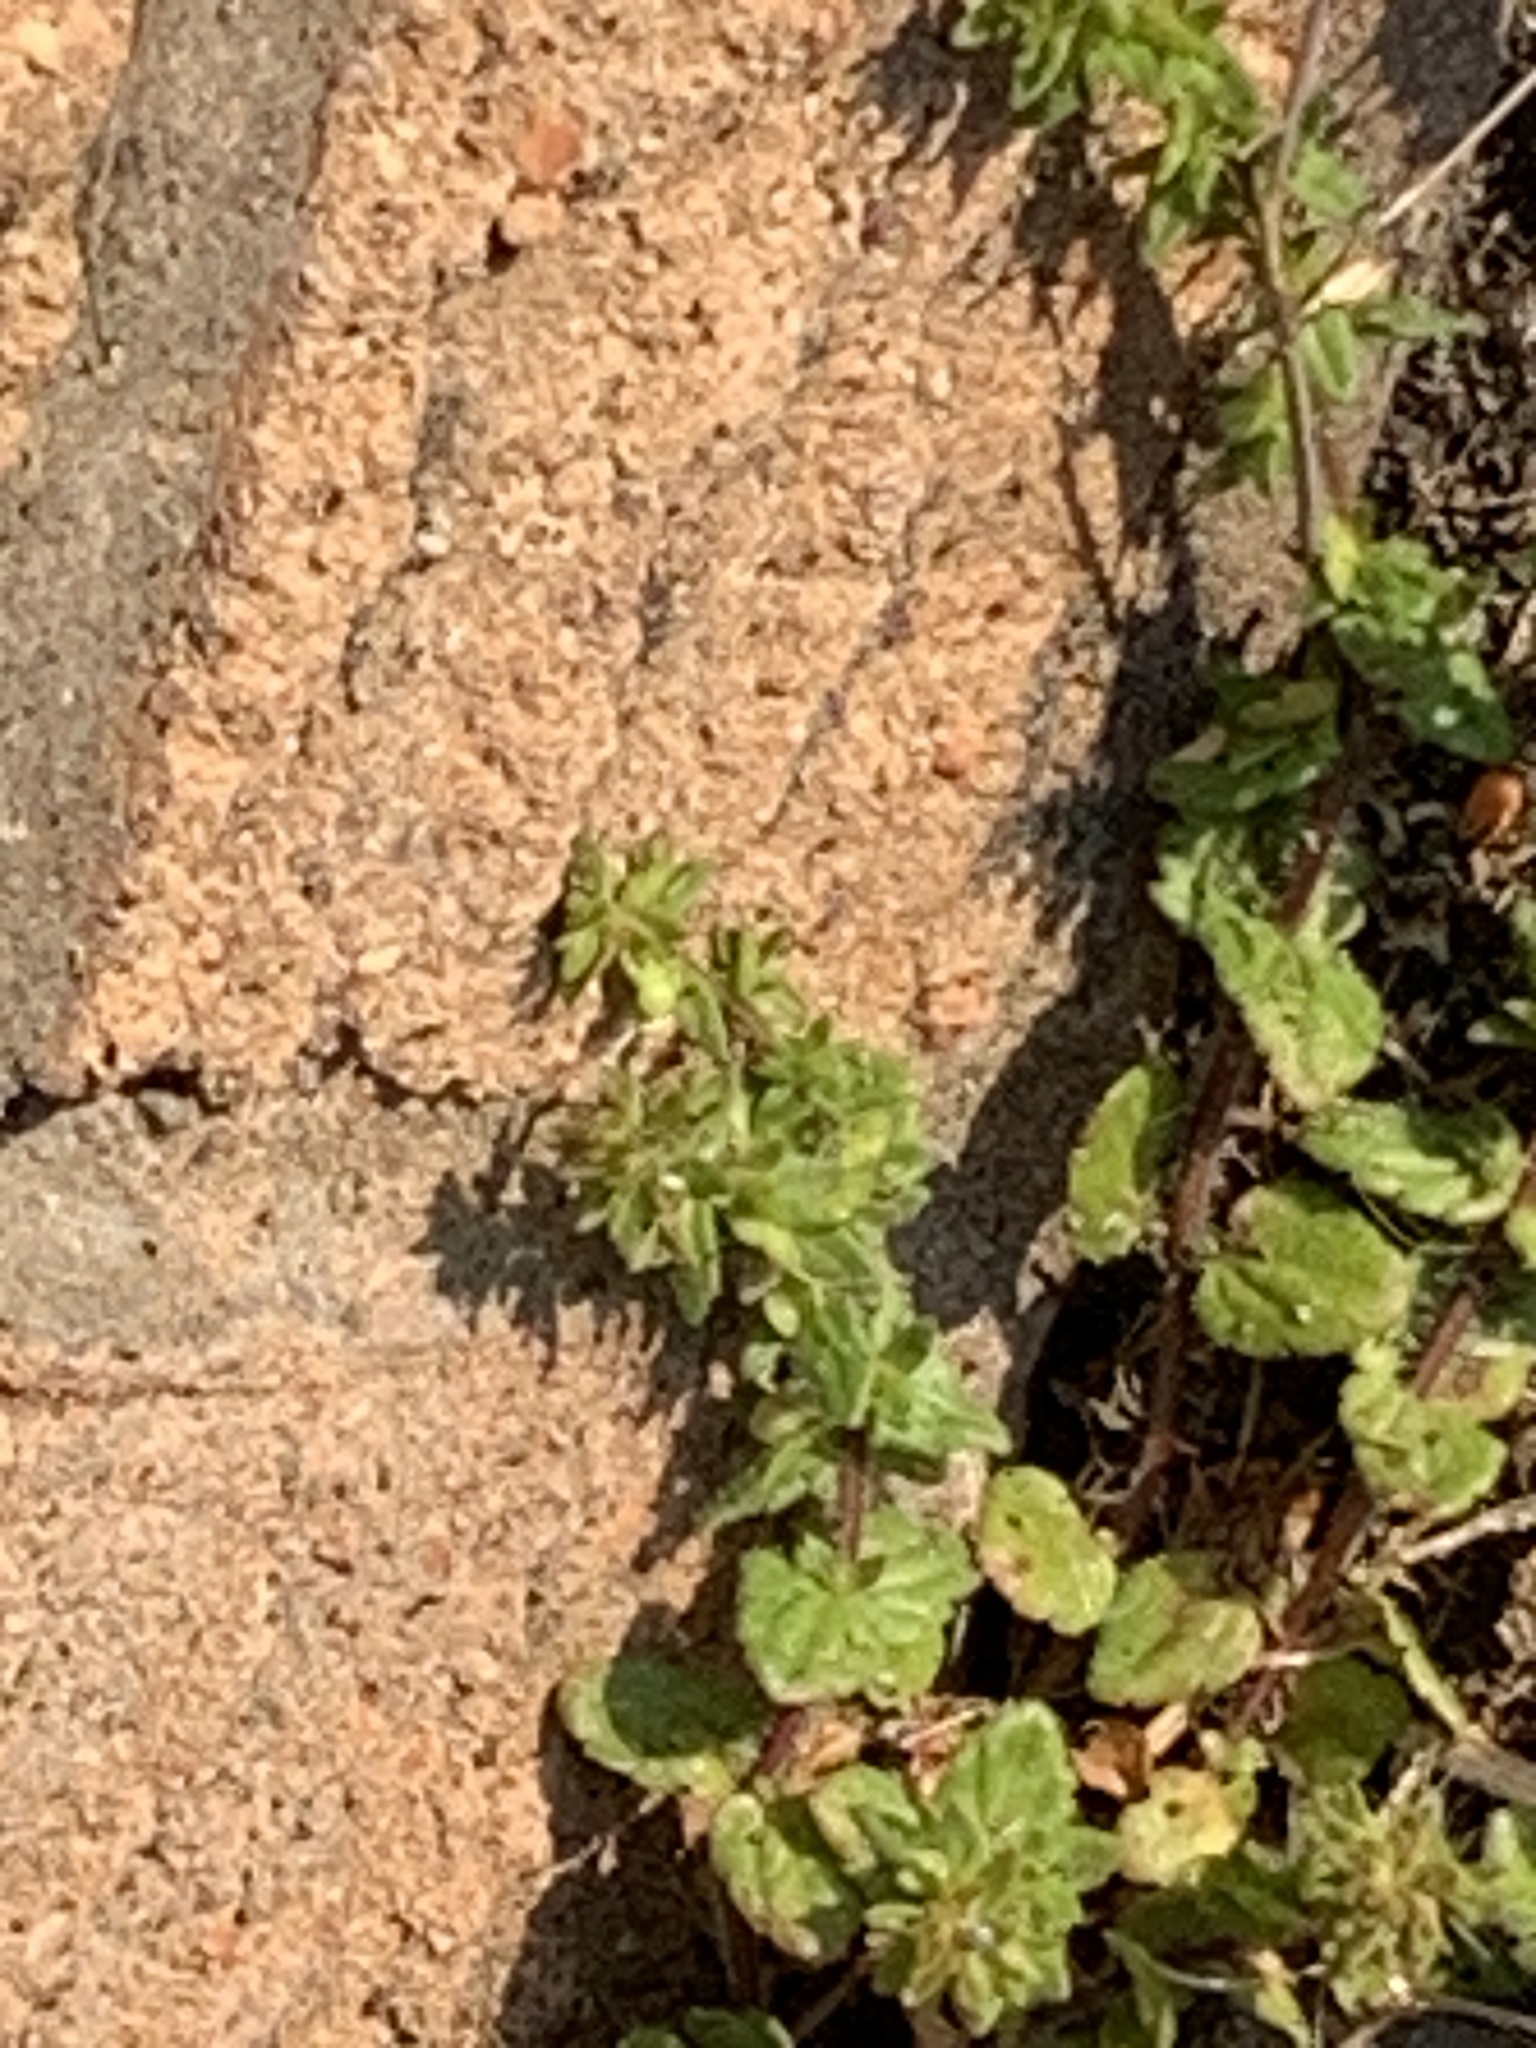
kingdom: Plantae
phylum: Tracheophyta
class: Magnoliopsida
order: Lamiales
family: Plantaginaceae
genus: Veronica
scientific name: Veronica arvensis
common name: Corn speedwell
